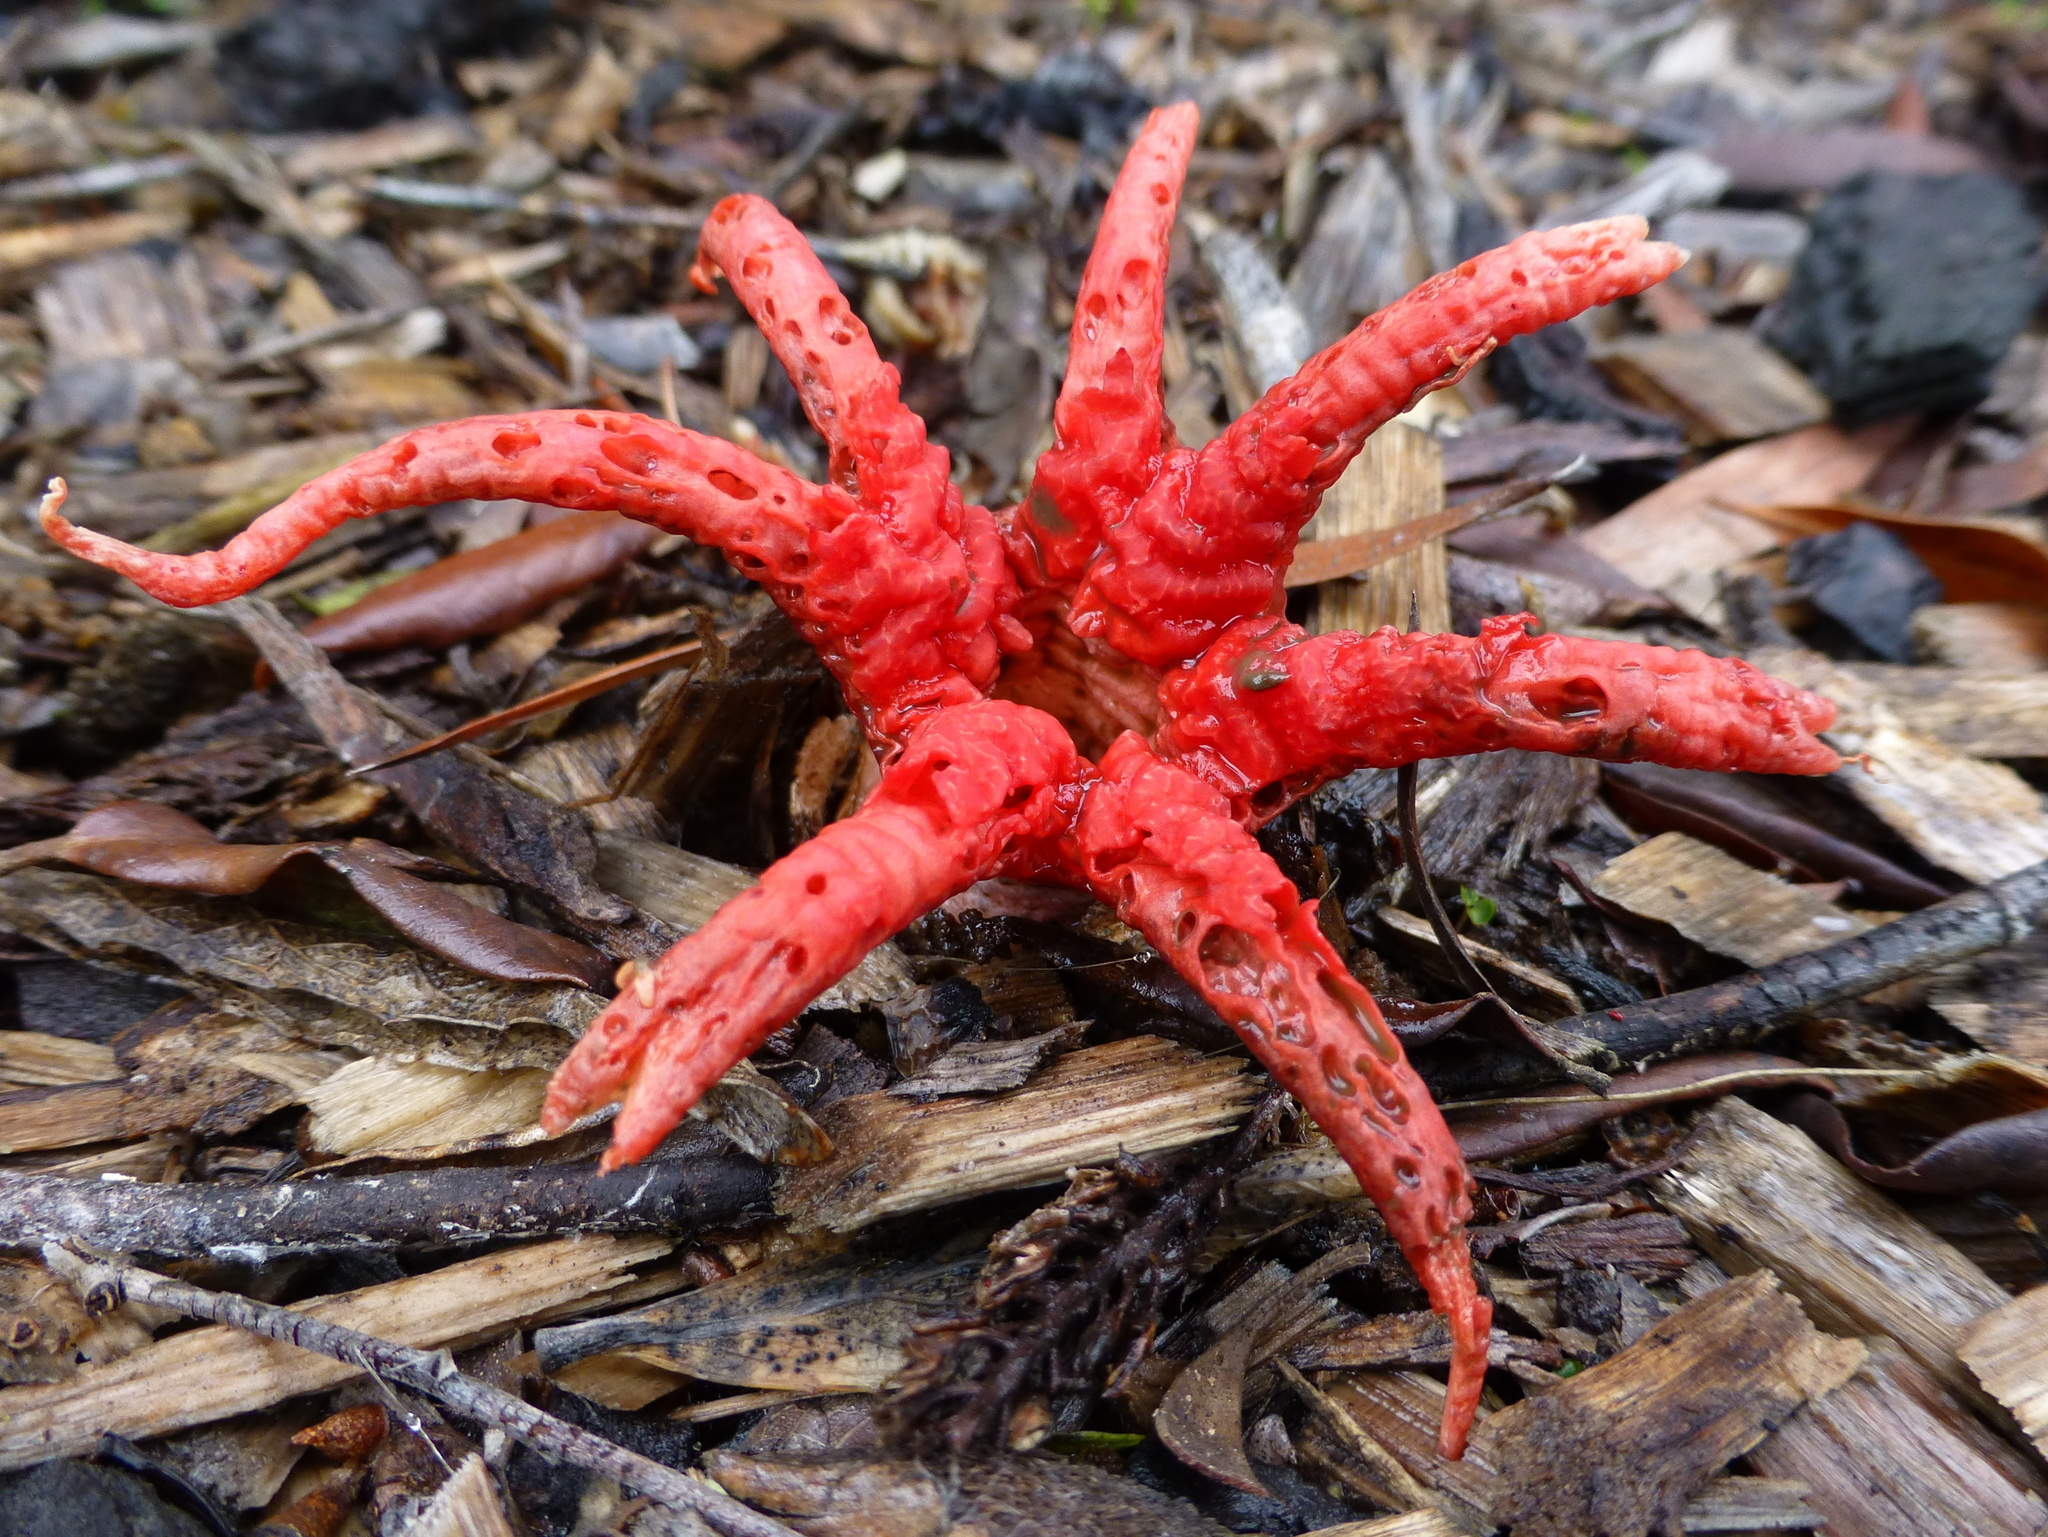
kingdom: Fungi
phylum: Basidiomycota
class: Agaricomycetes
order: Phallales
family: Phallaceae
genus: Aseroe
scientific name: Aseroe rubra
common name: Starfish fungus
